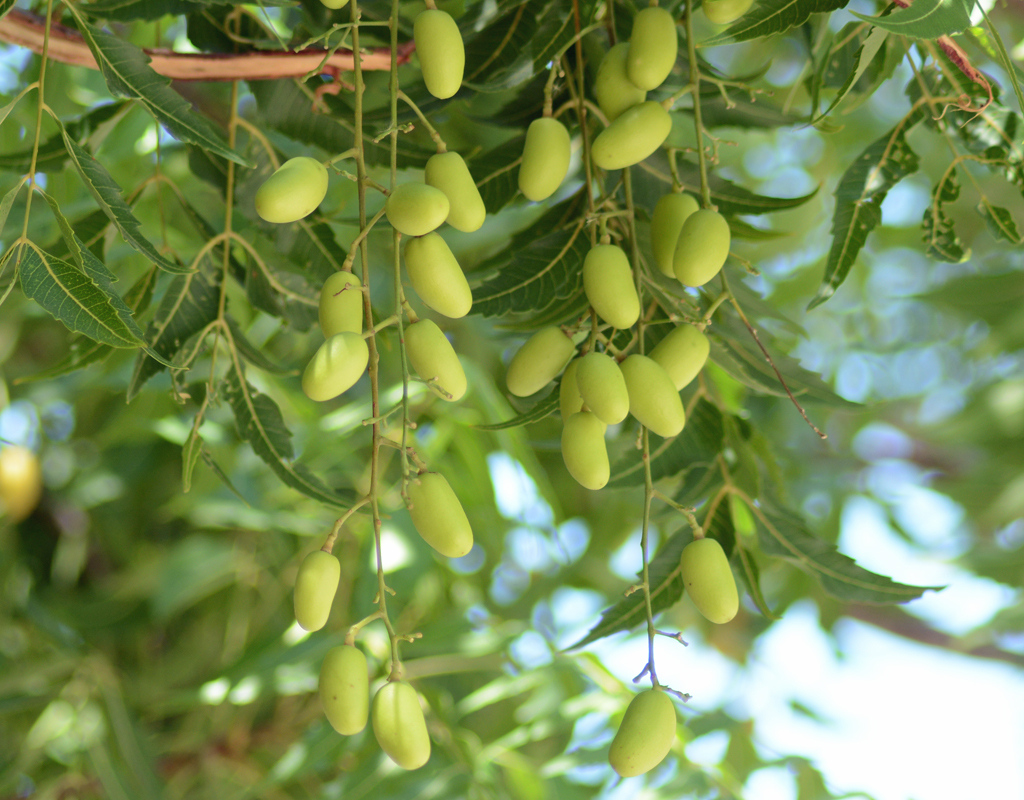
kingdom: Plantae
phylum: Tracheophyta
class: Magnoliopsida
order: Sapindales
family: Meliaceae
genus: Azadirachta
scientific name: Azadirachta indica
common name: Neem
